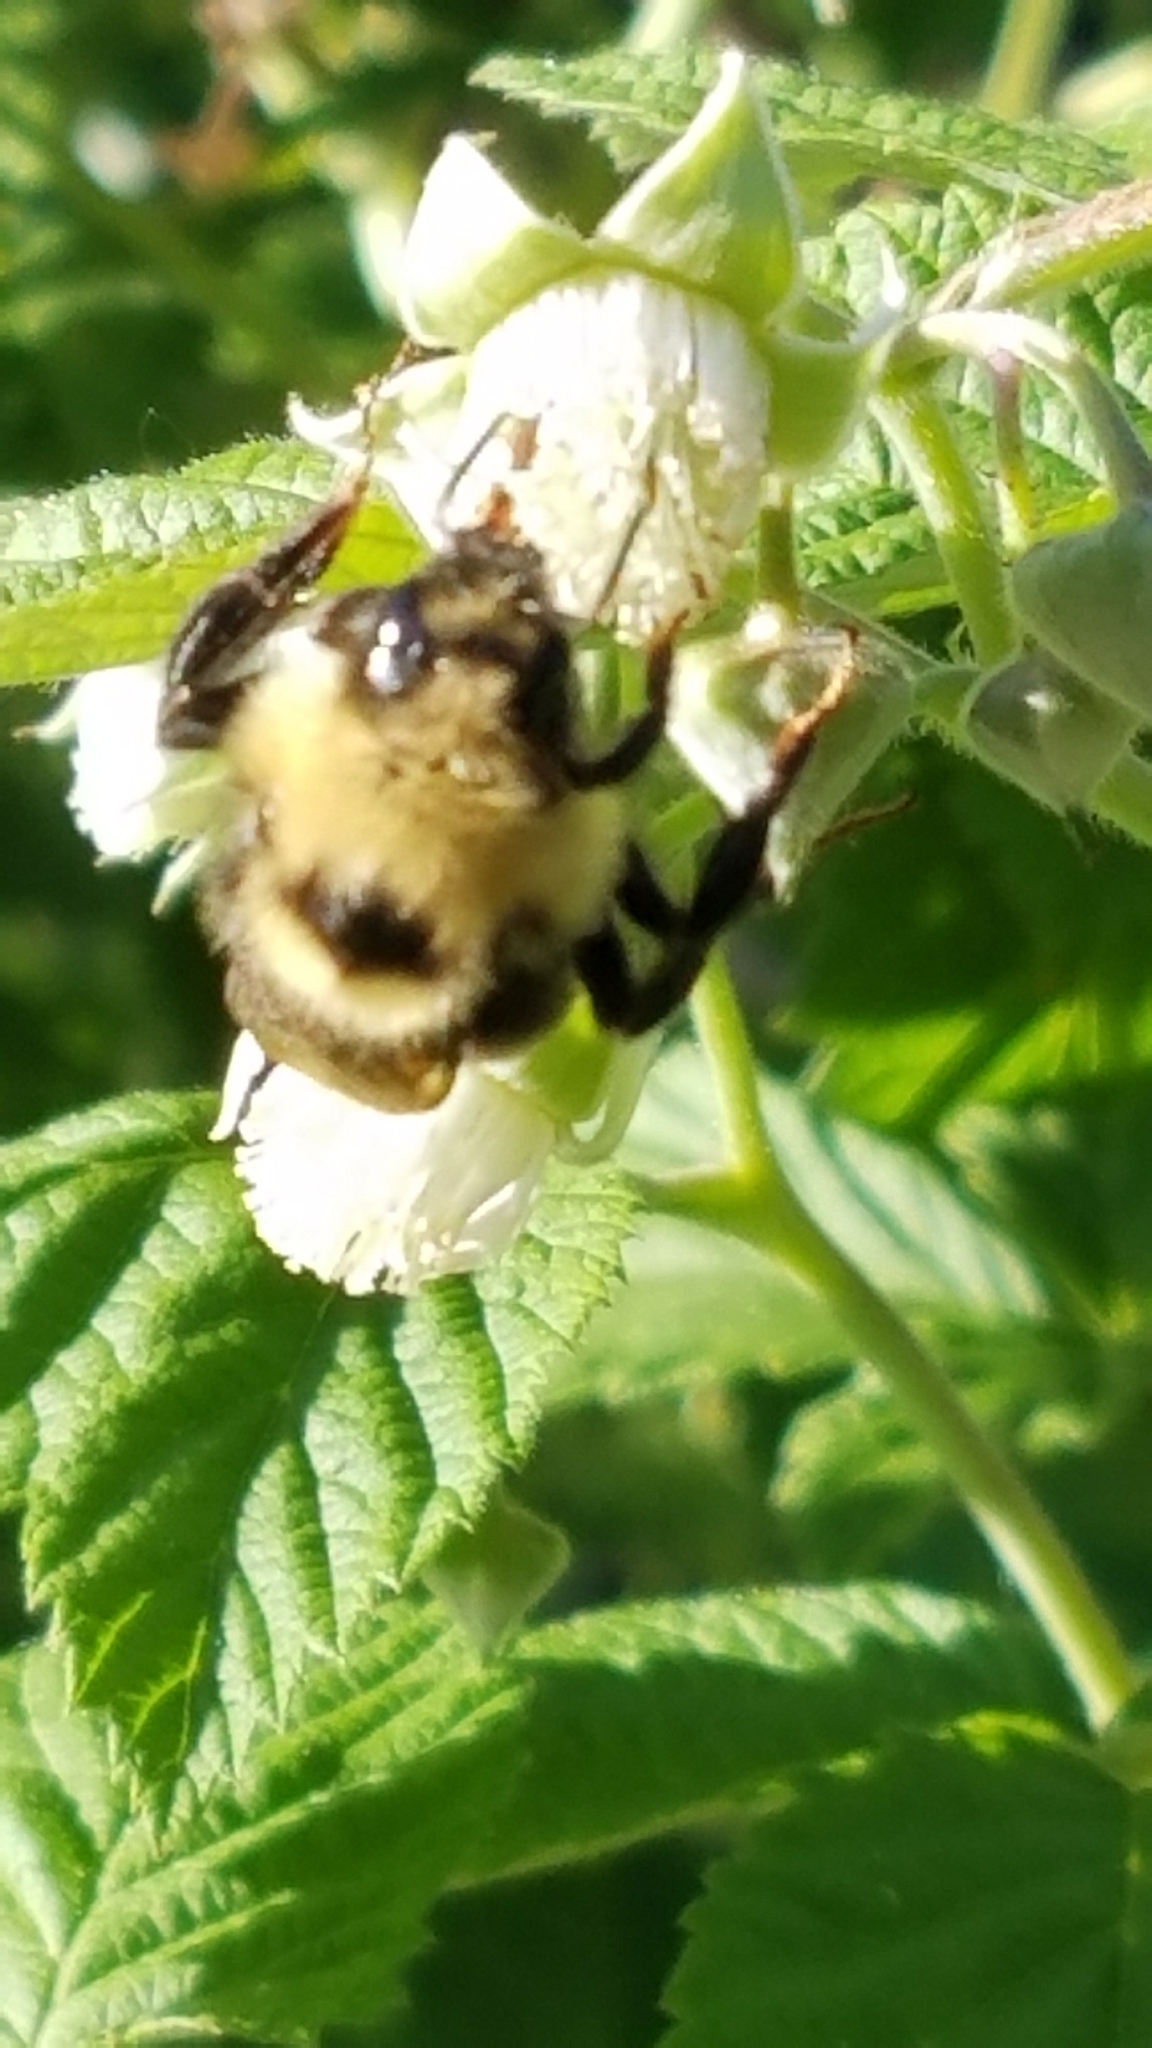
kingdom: Animalia
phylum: Arthropoda
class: Insecta
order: Hymenoptera
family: Apidae
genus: Bombus
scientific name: Bombus insularis
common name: Indiscriminate cuckoo bumble bee
